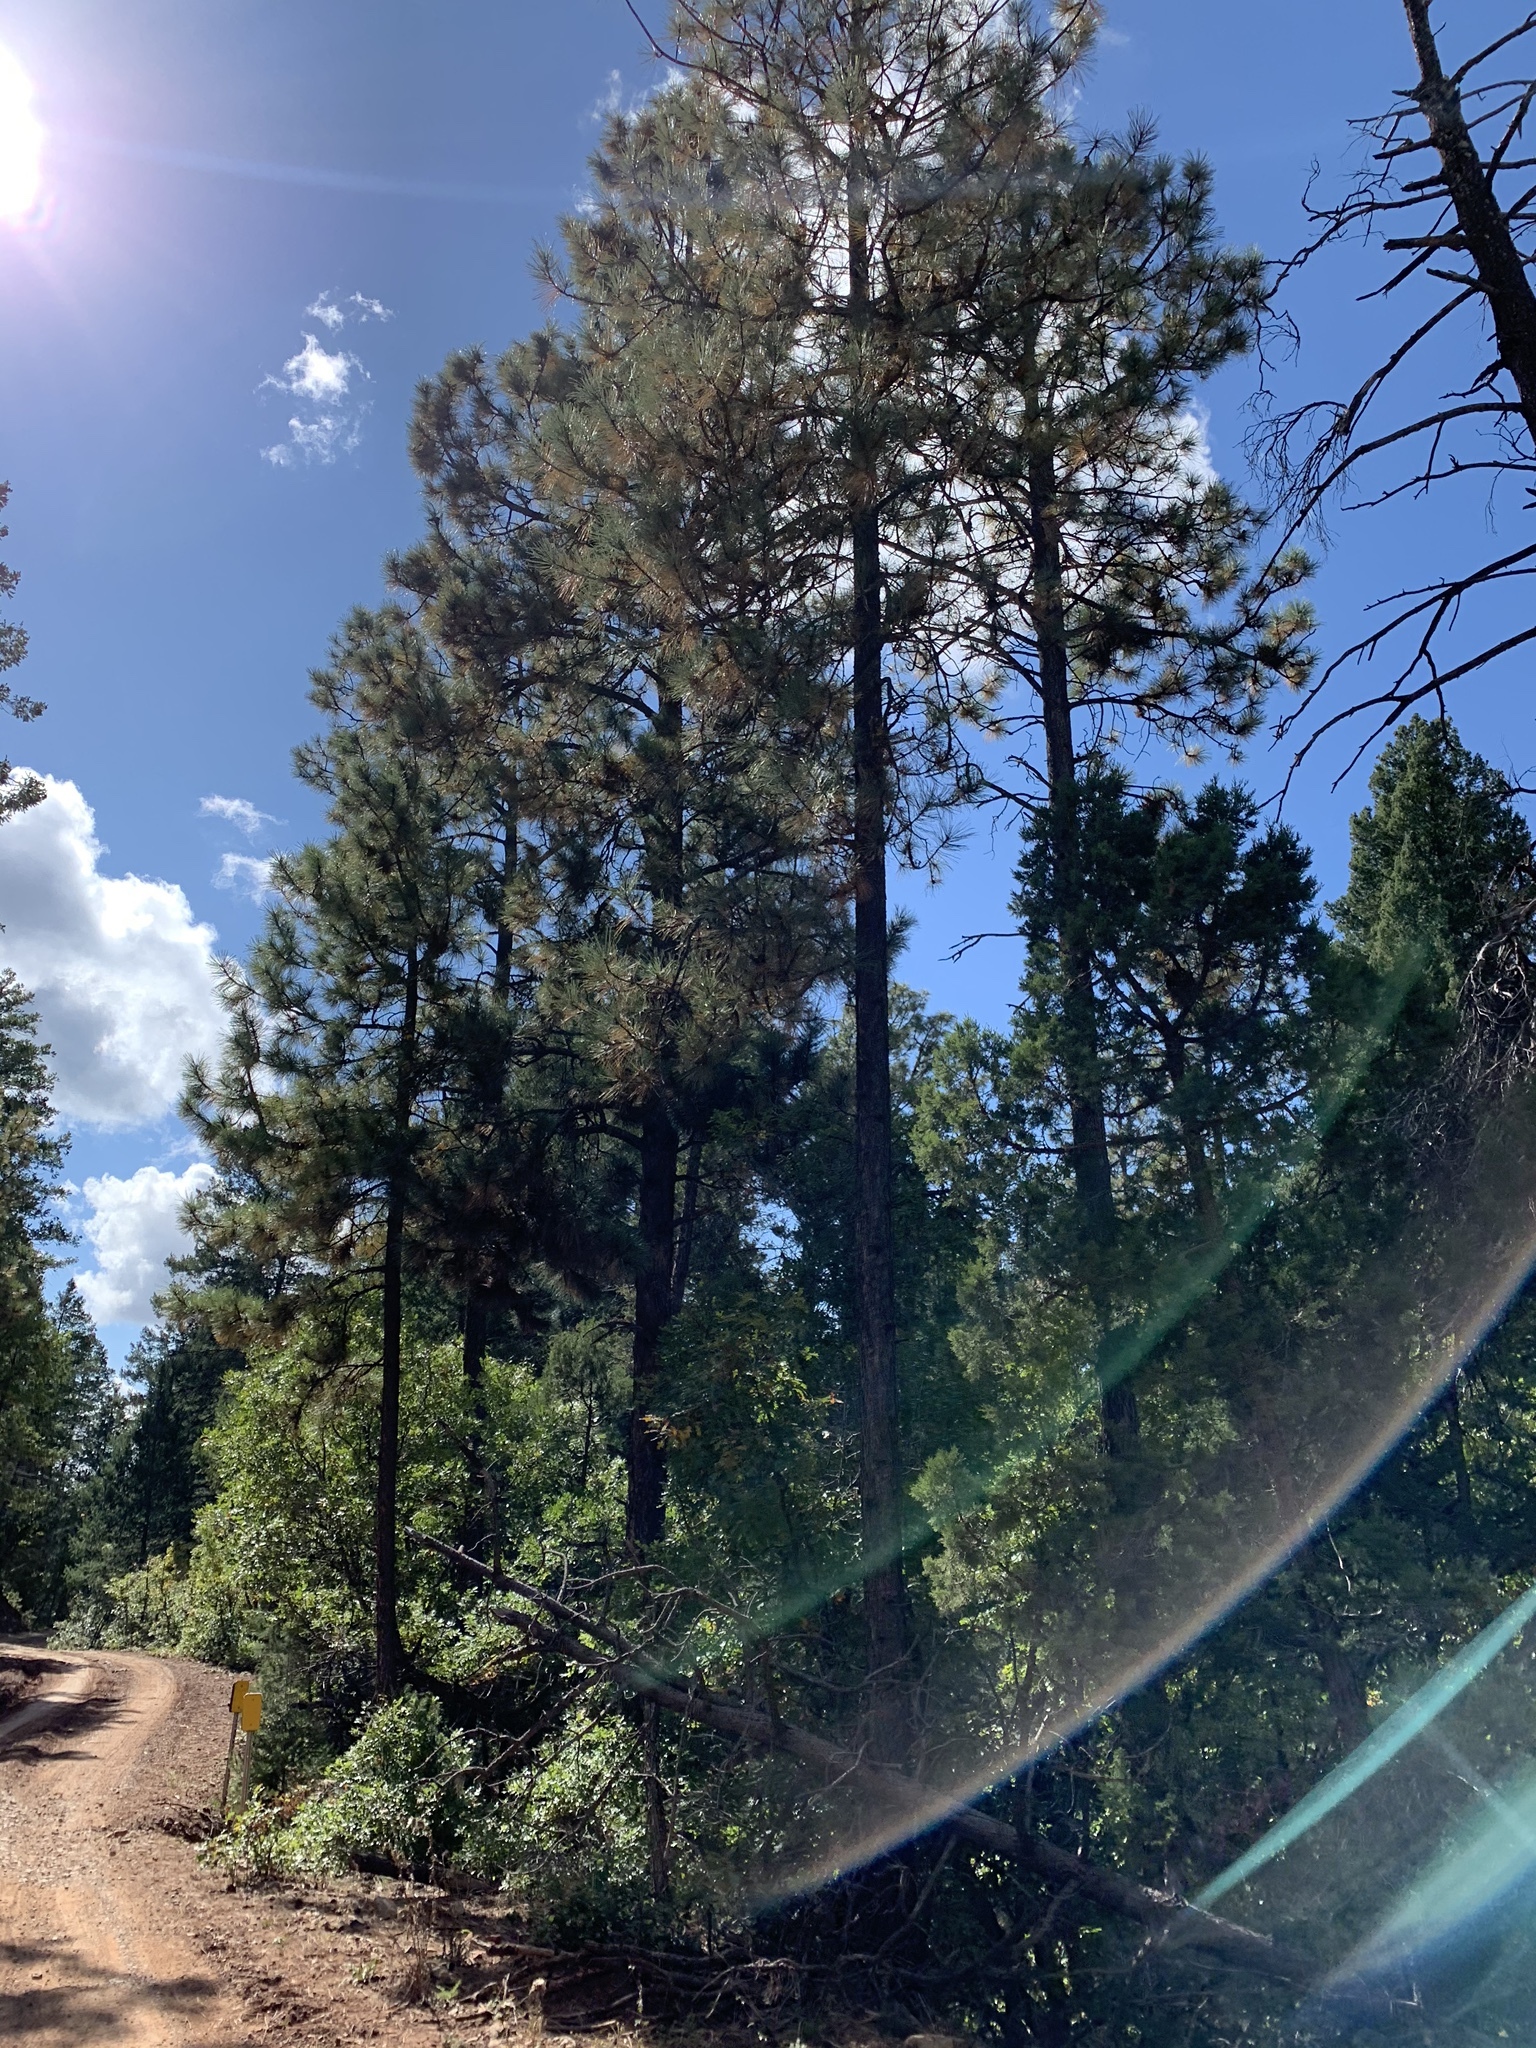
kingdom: Plantae
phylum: Tracheophyta
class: Pinopsida
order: Pinales
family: Pinaceae
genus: Pinus
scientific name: Pinus ponderosa
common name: Western yellow-pine
